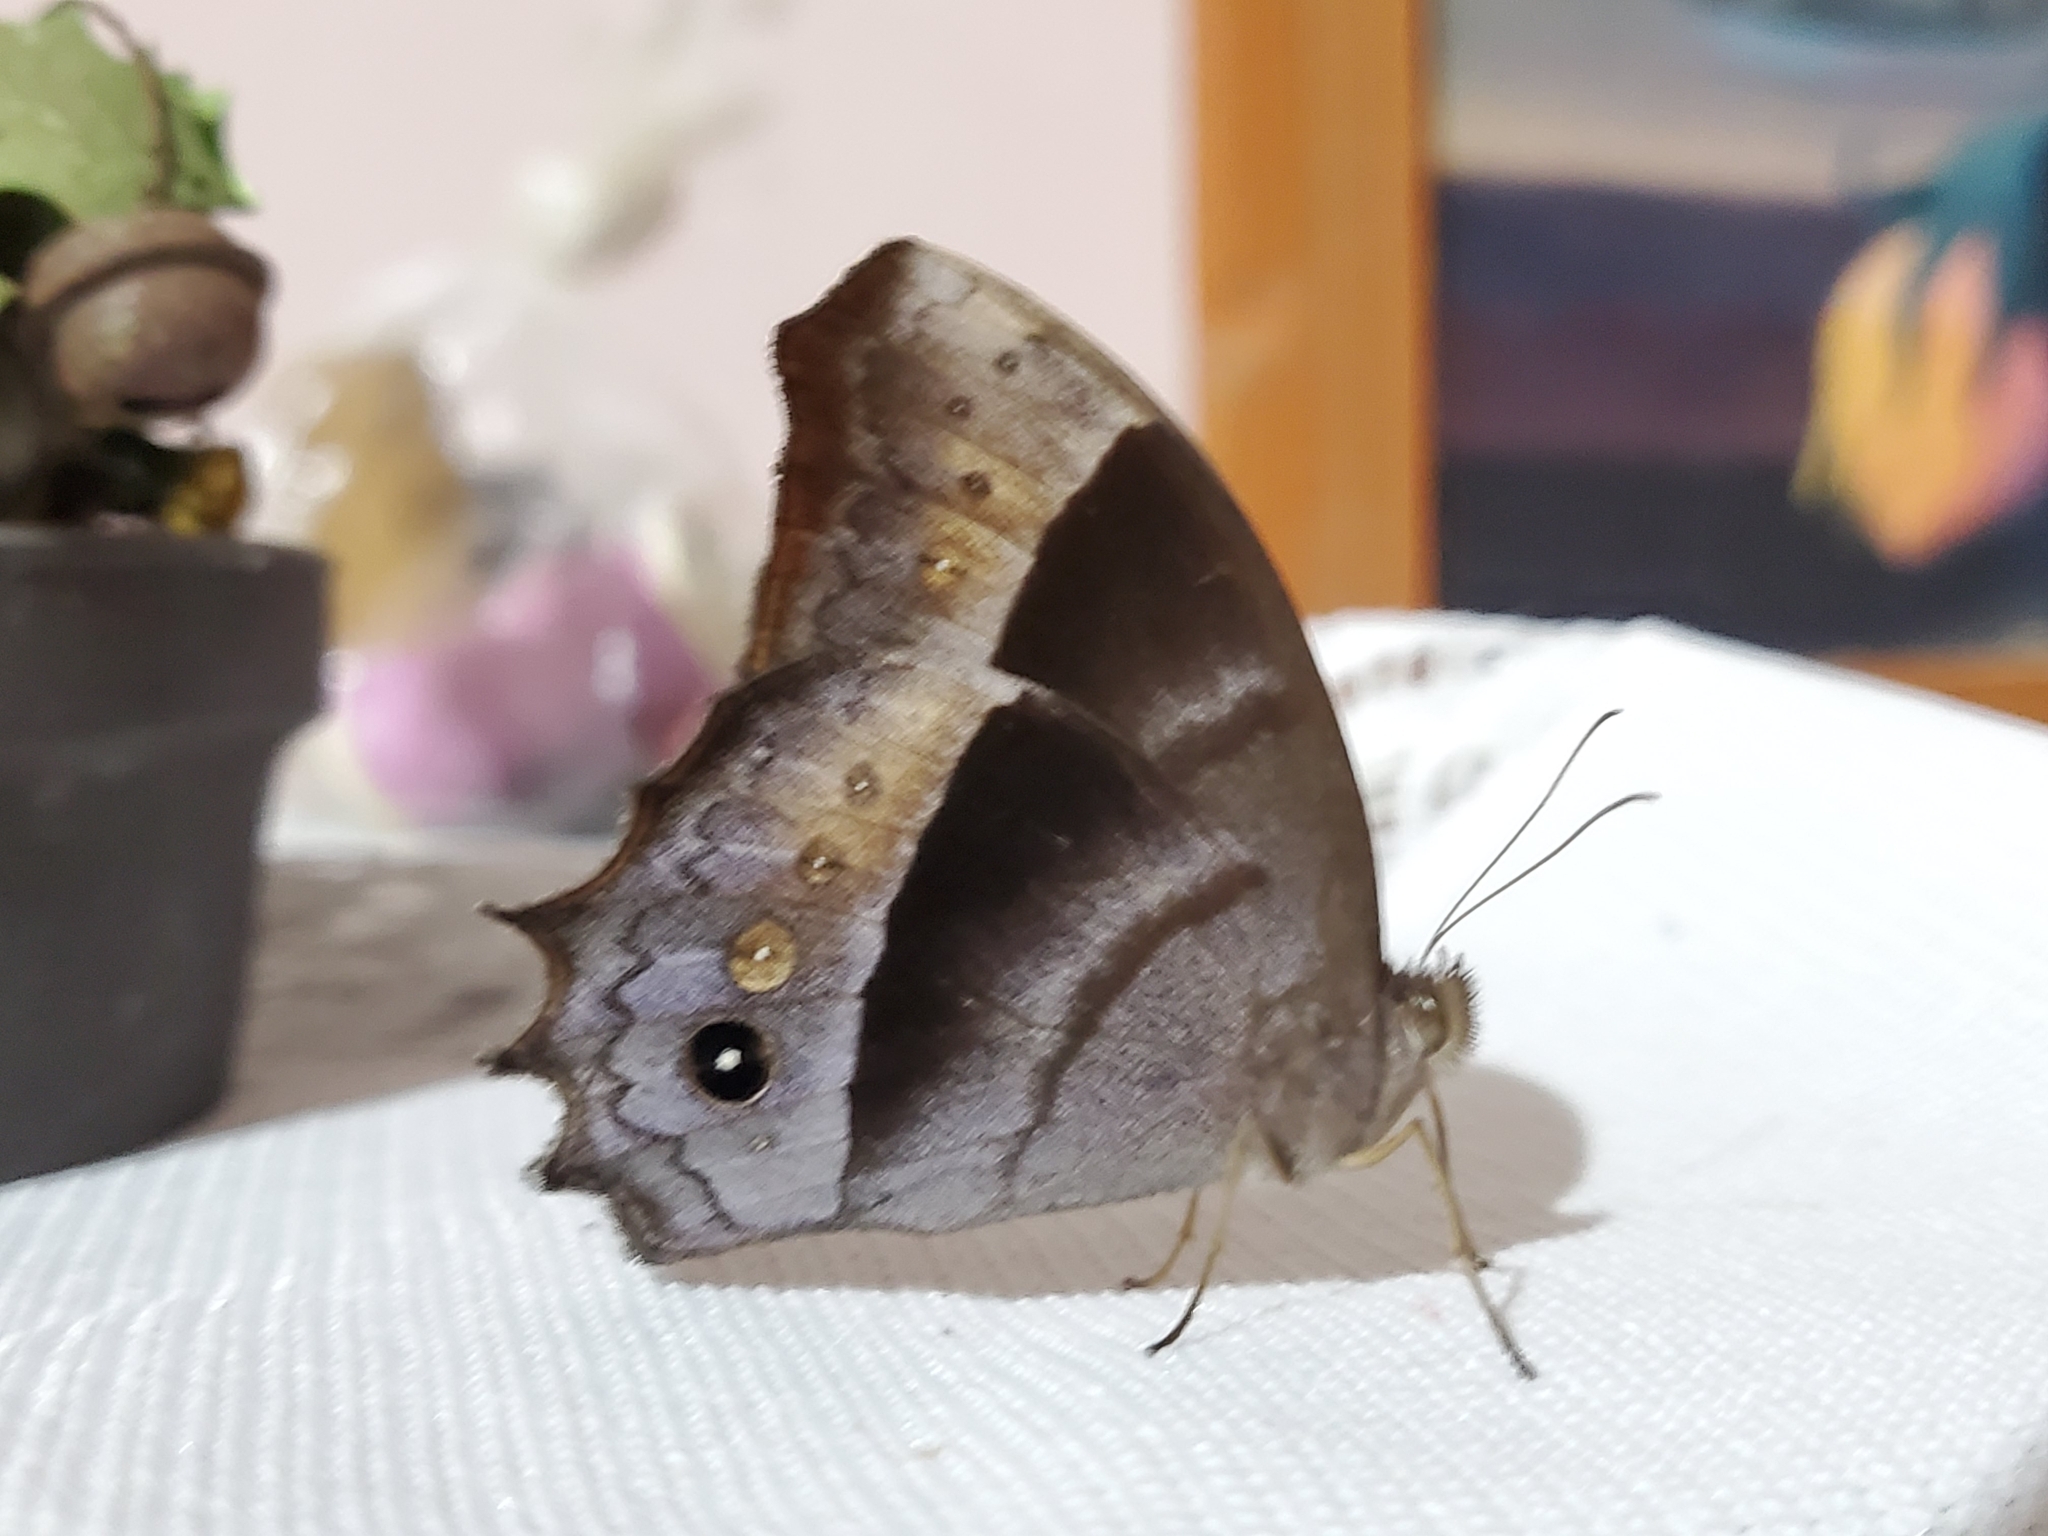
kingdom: Animalia
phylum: Arthropoda
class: Insecta
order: Lepidoptera
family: Nymphalidae
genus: Taygetis
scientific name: Taygetis inconspicua
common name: Inconspicuous satyr
